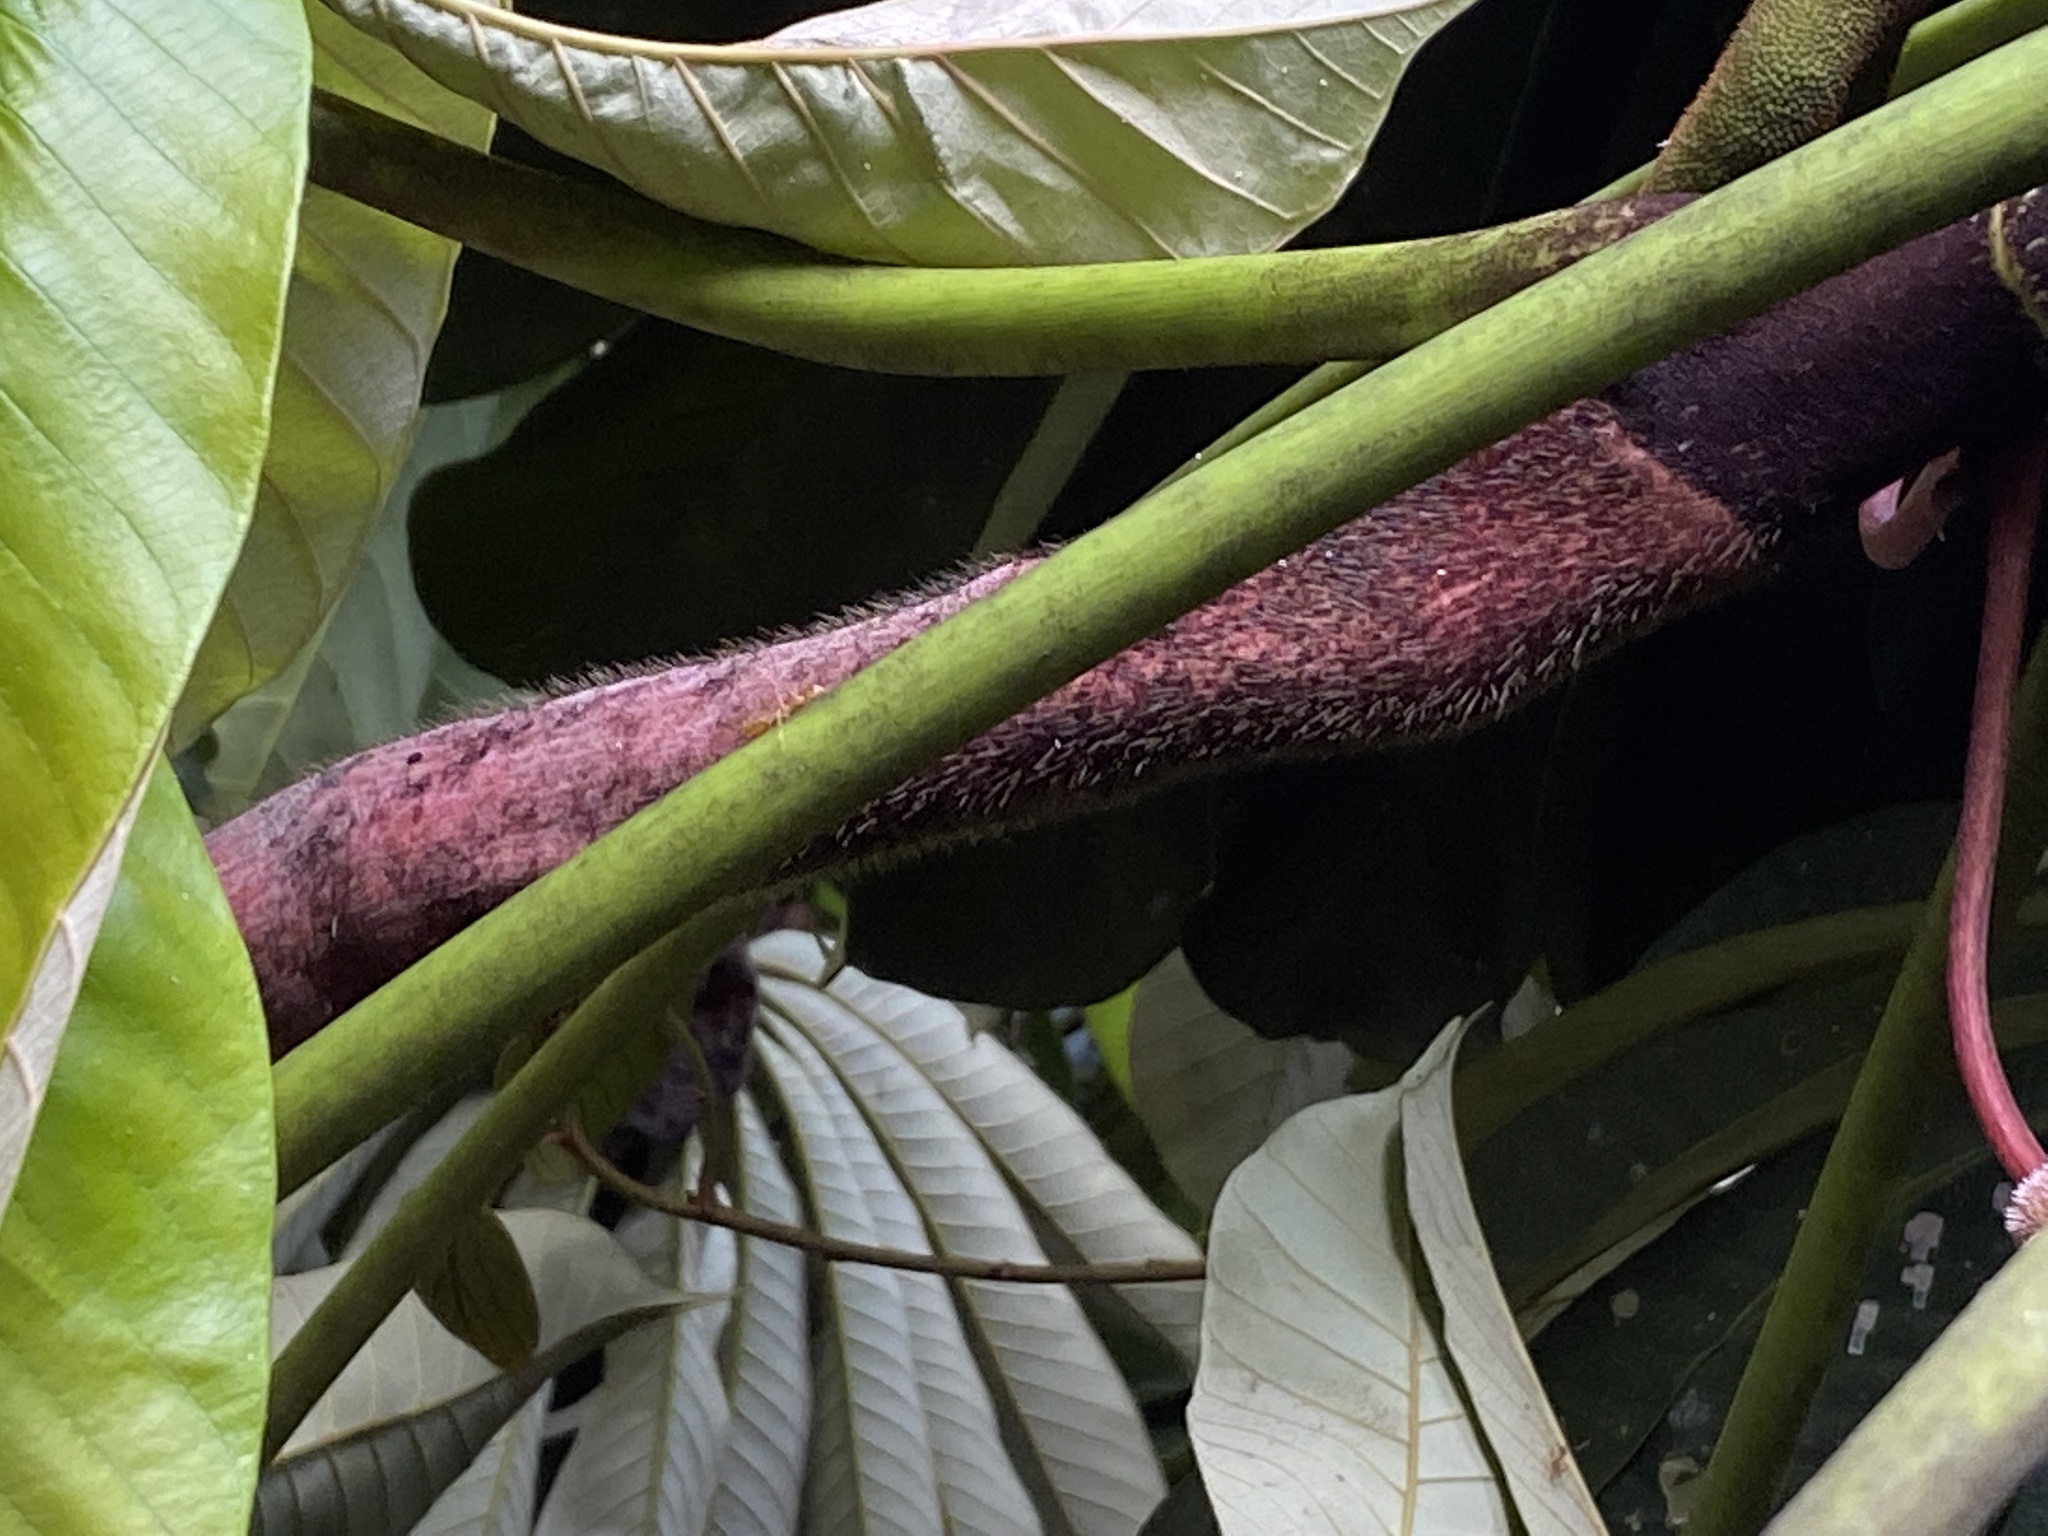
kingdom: Plantae
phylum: Tracheophyta
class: Magnoliopsida
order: Rosales
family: Urticaceae
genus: Musanga
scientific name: Musanga cecropioides
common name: African corkwood
